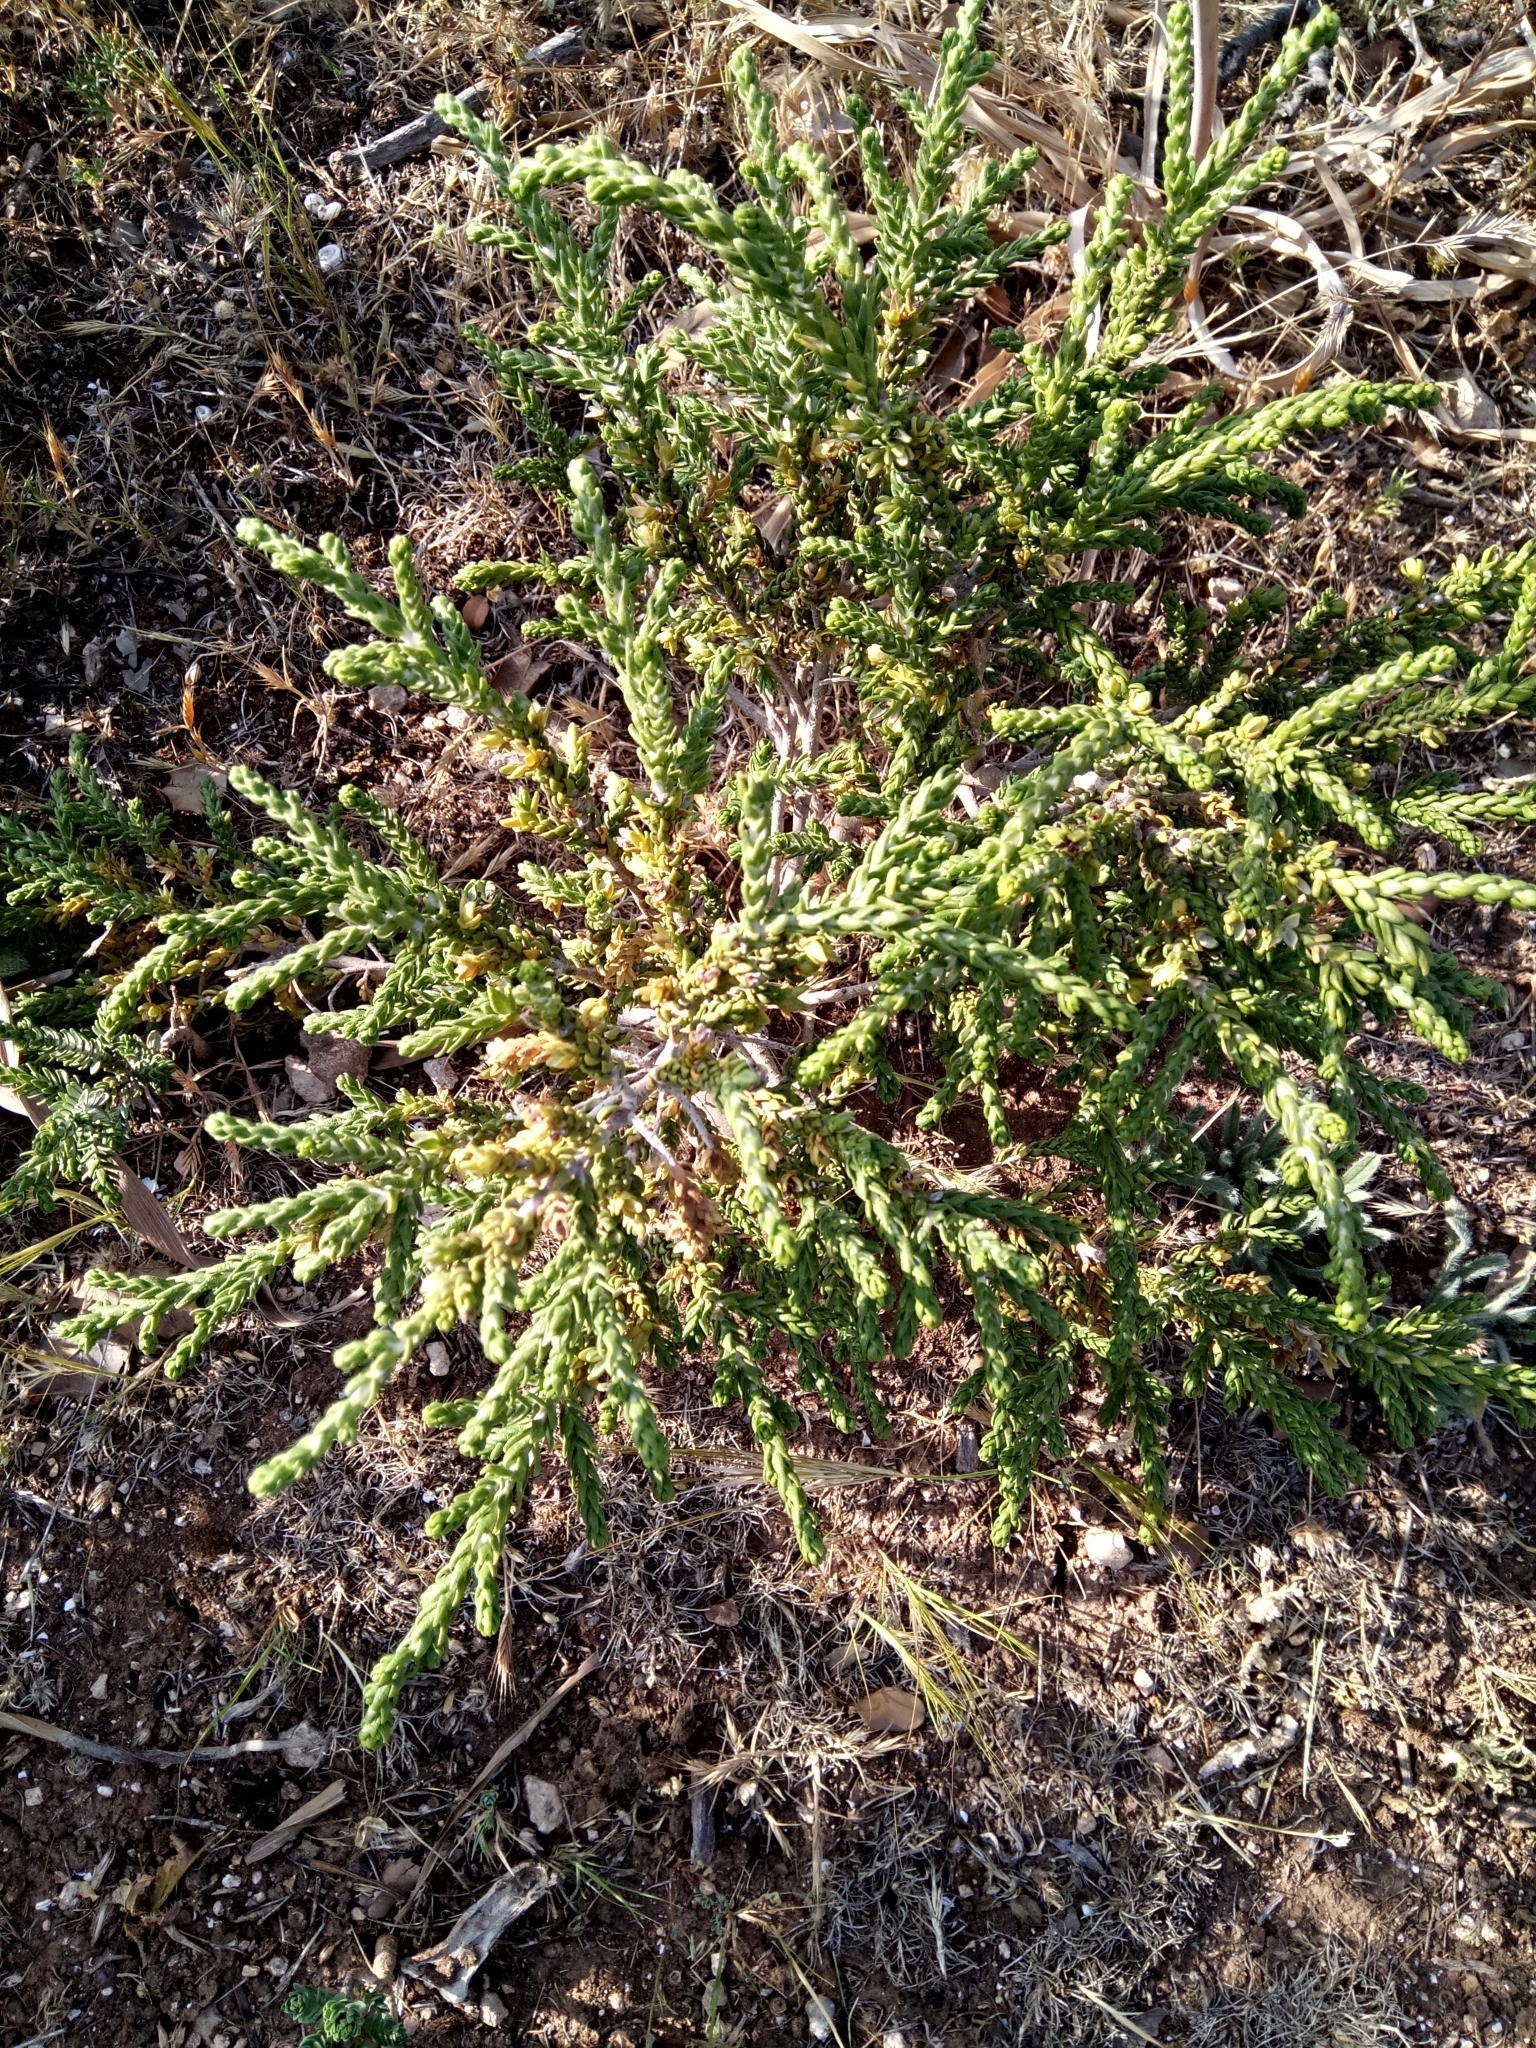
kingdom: Plantae
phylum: Tracheophyta
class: Magnoliopsida
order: Malvales
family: Thymelaeaceae
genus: Thymelaea
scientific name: Thymelaea hirsuta
